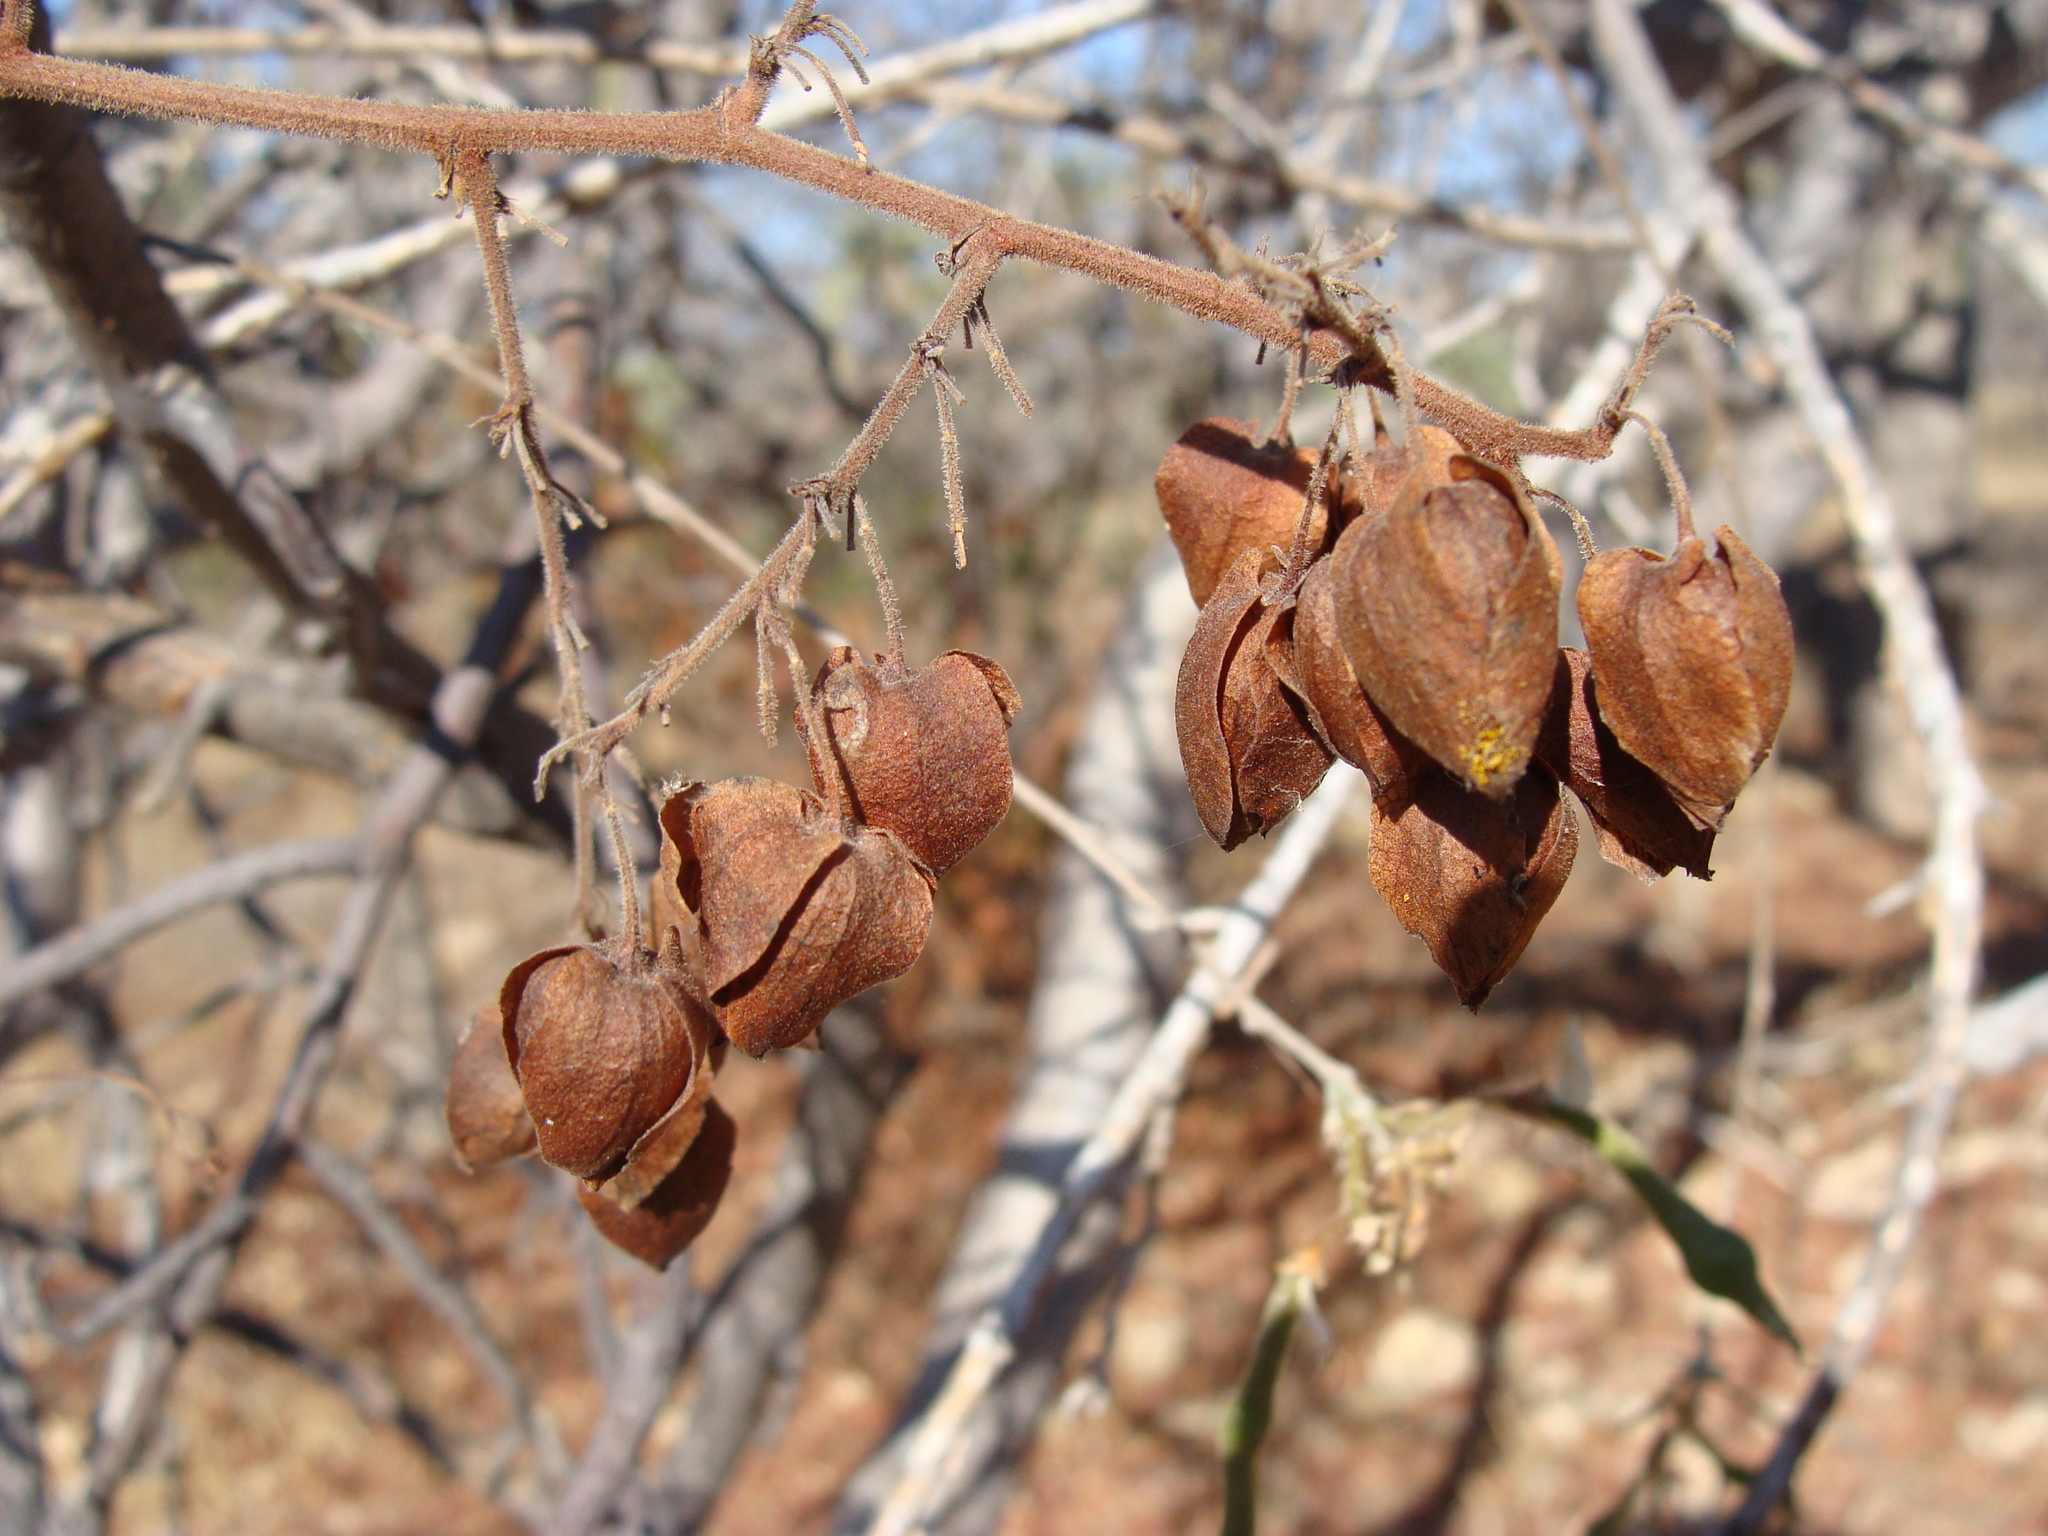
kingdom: Plantae
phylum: Tracheophyta
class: Magnoliopsida
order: Caryophyllales
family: Polygonaceae
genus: Antigonon
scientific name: Antigonon leptopus
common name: Coral vine
